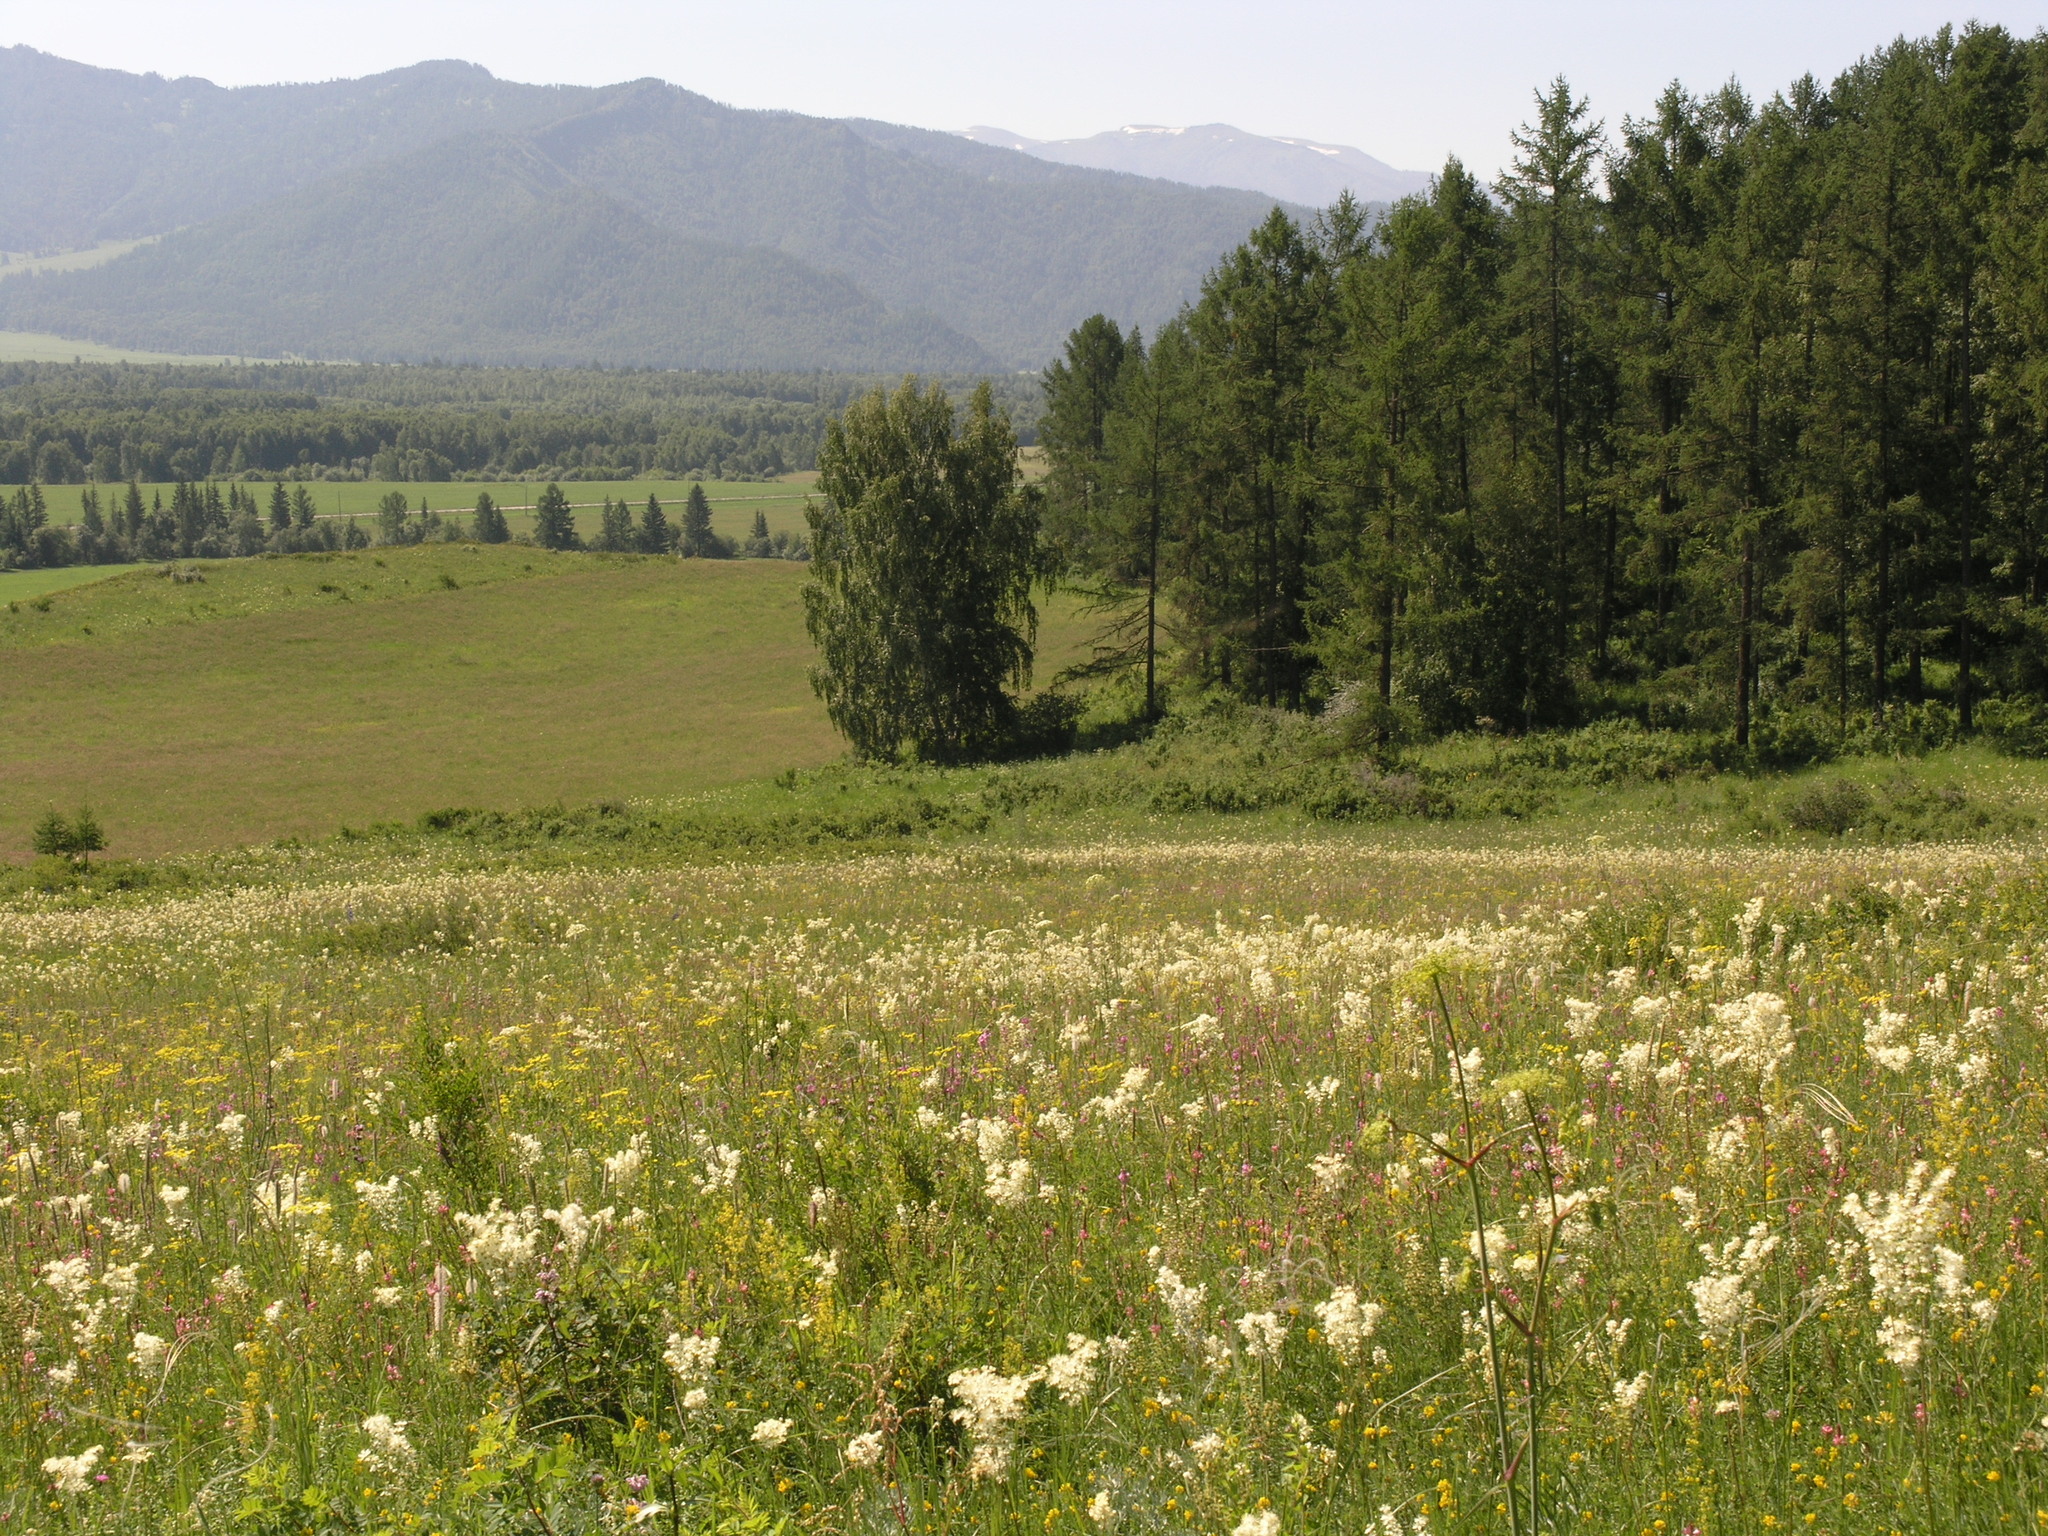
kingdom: Plantae
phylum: Tracheophyta
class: Pinopsida
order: Pinales
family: Pinaceae
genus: Larix
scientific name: Larix sibirica
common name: Siberian larch
